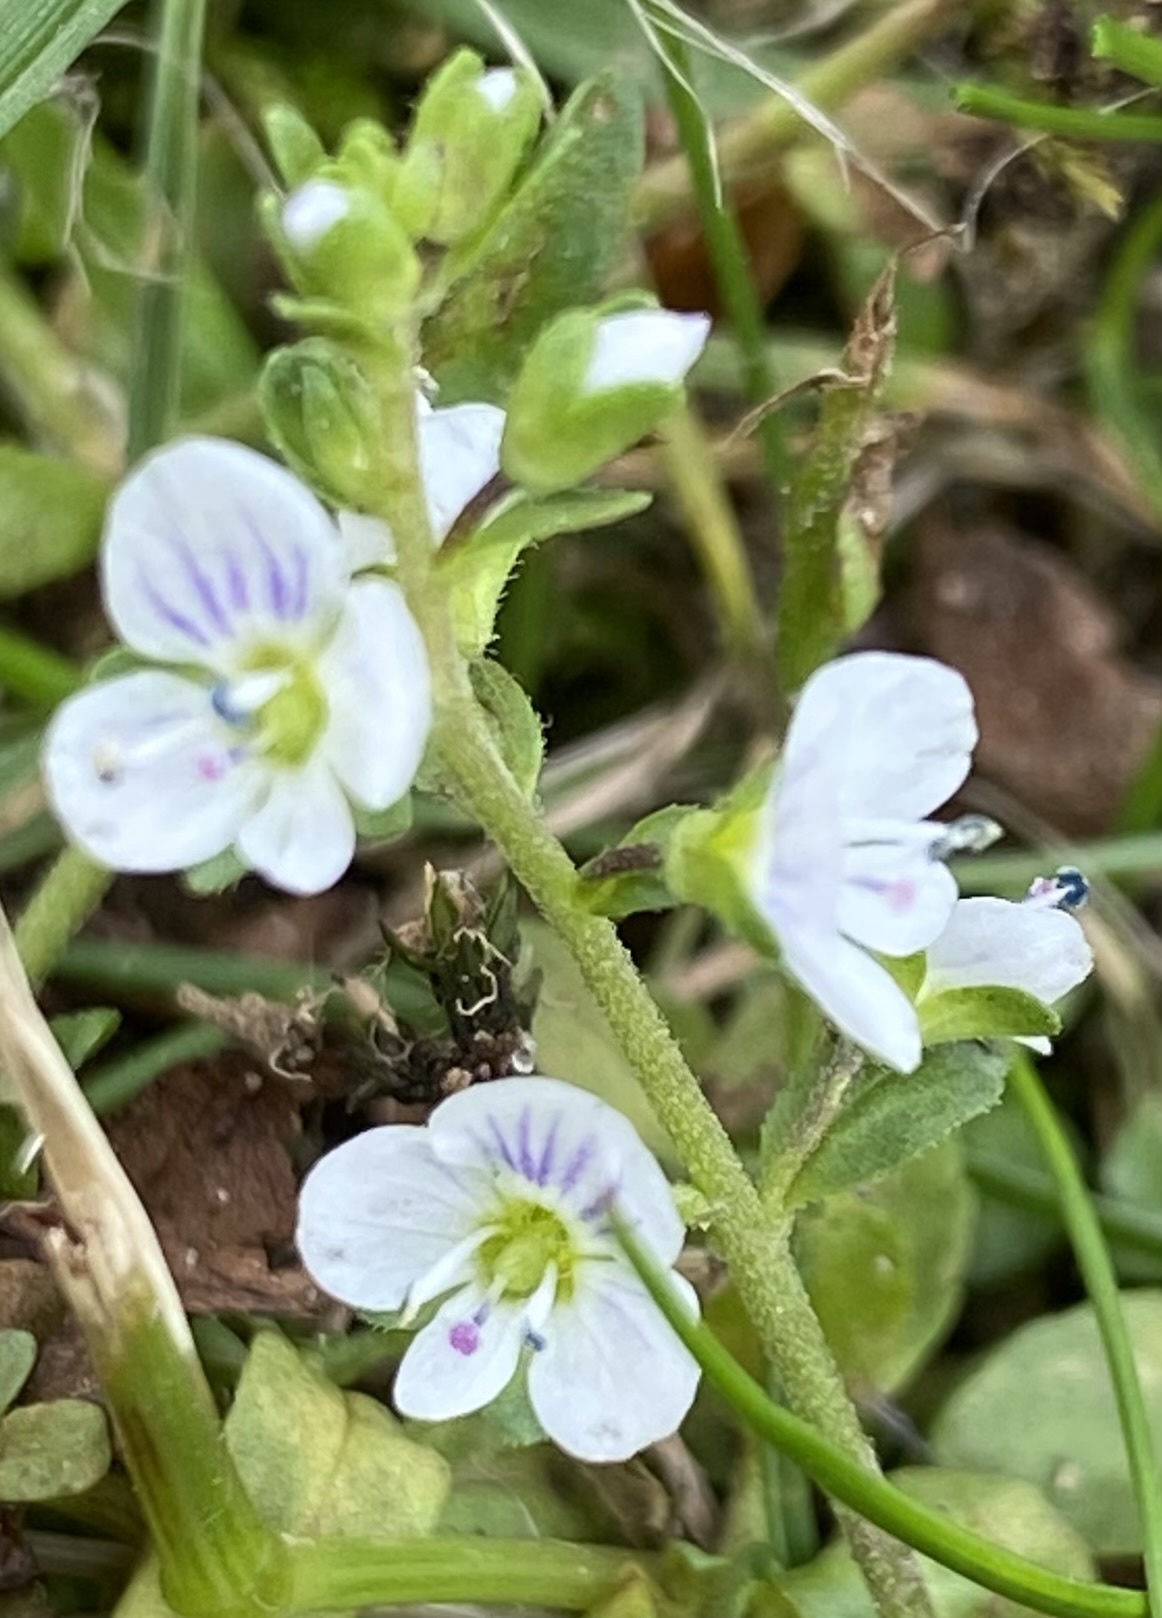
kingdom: Plantae
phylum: Tracheophyta
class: Magnoliopsida
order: Lamiales
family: Plantaginaceae
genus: Veronica
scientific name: Veronica serpyllifolia
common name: Thyme-leaved speedwell
